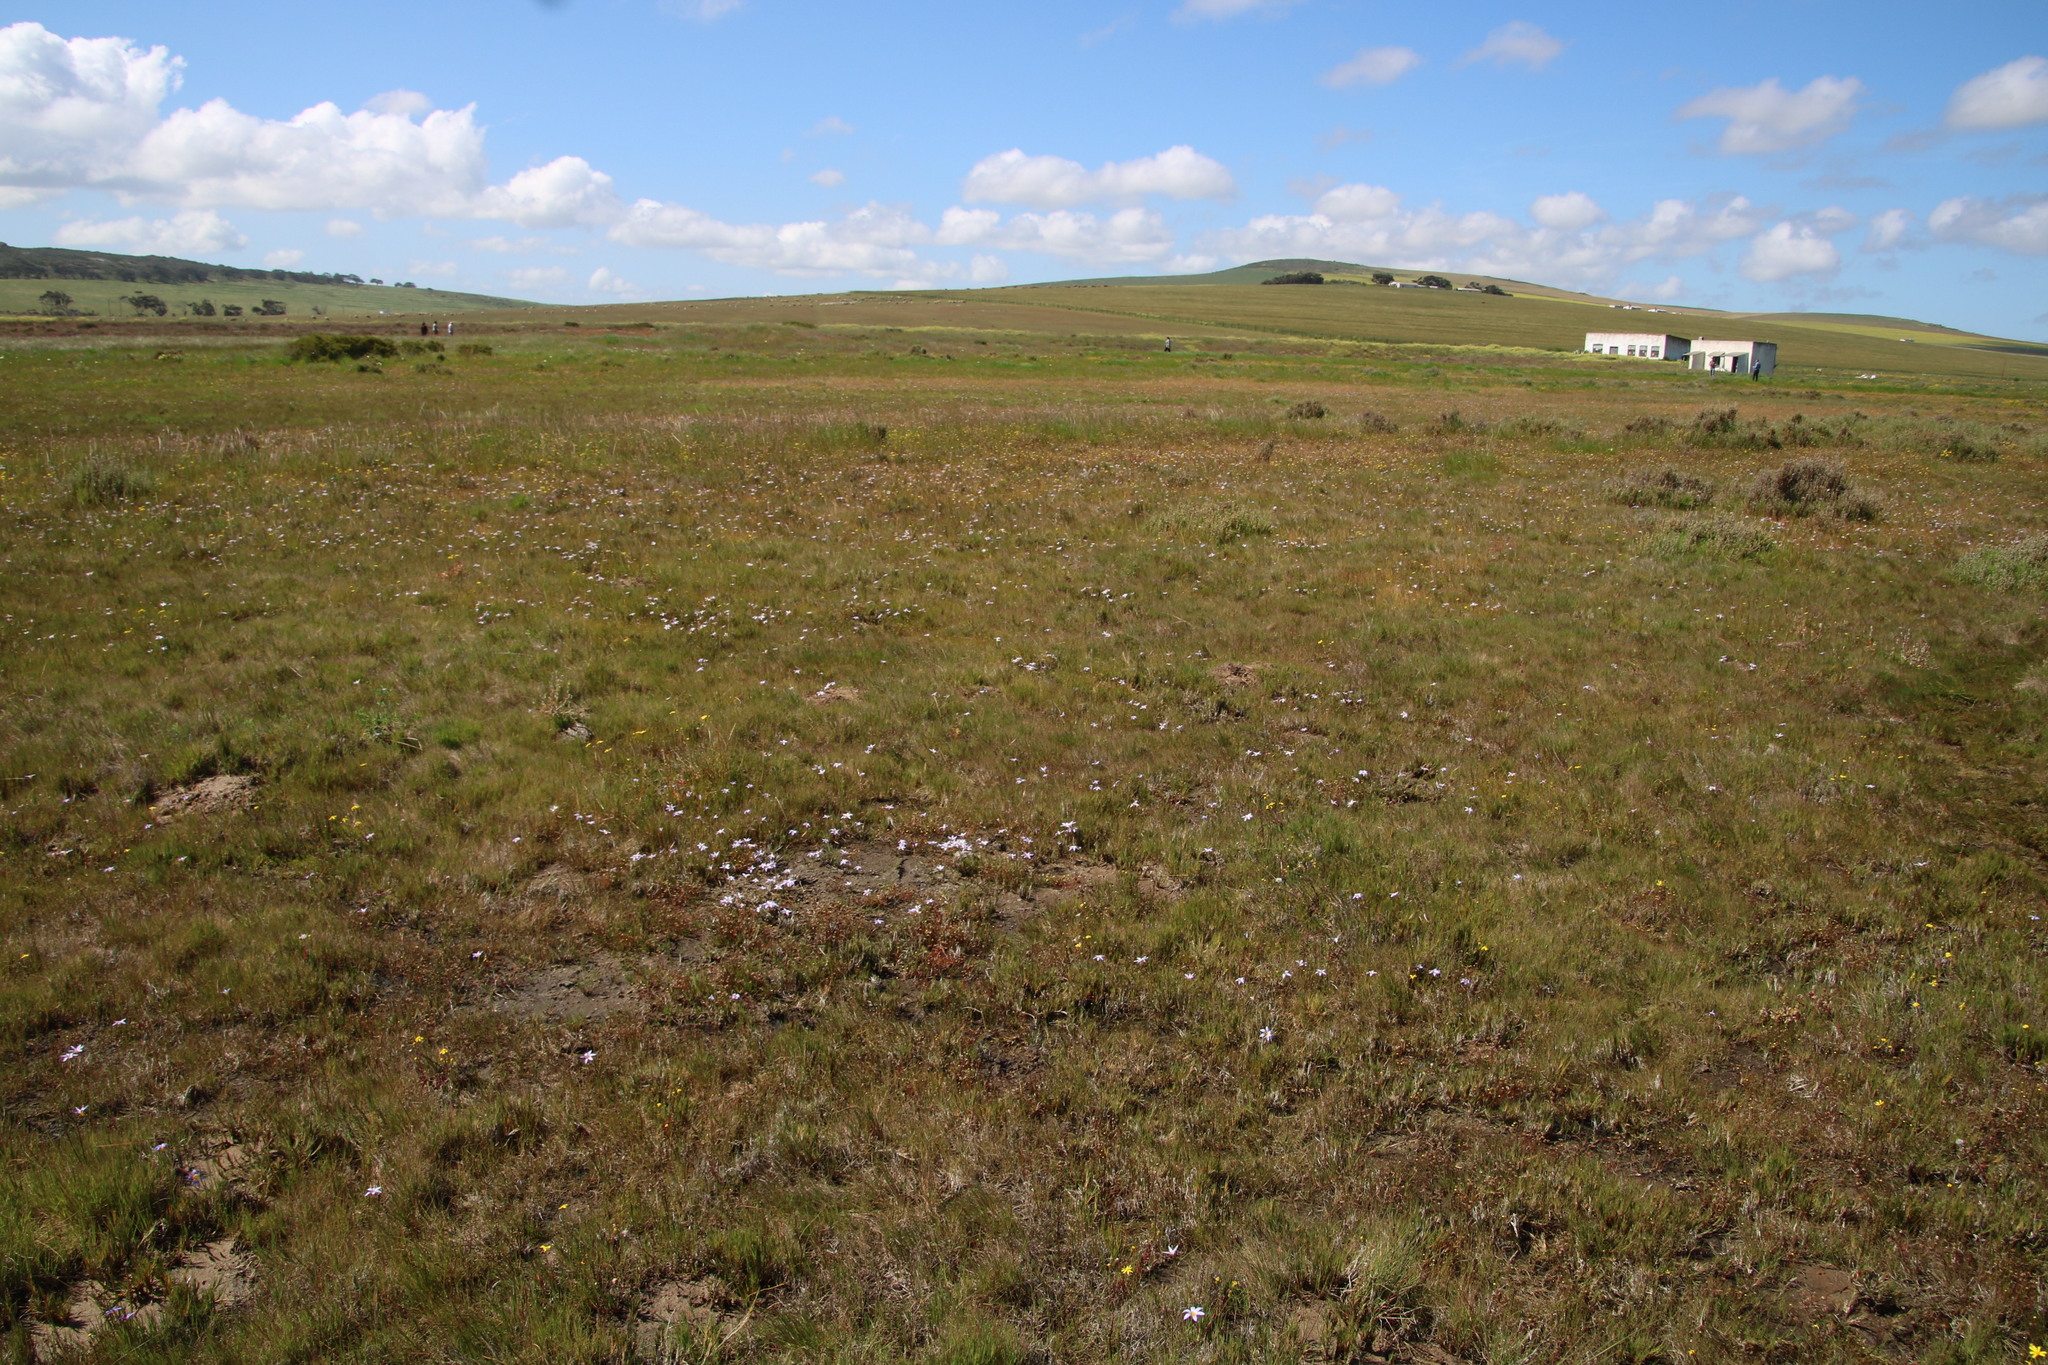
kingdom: Plantae
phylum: Tracheophyta
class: Liliopsida
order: Asparagales
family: Iridaceae
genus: Romulea
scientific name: Romulea tabularis
